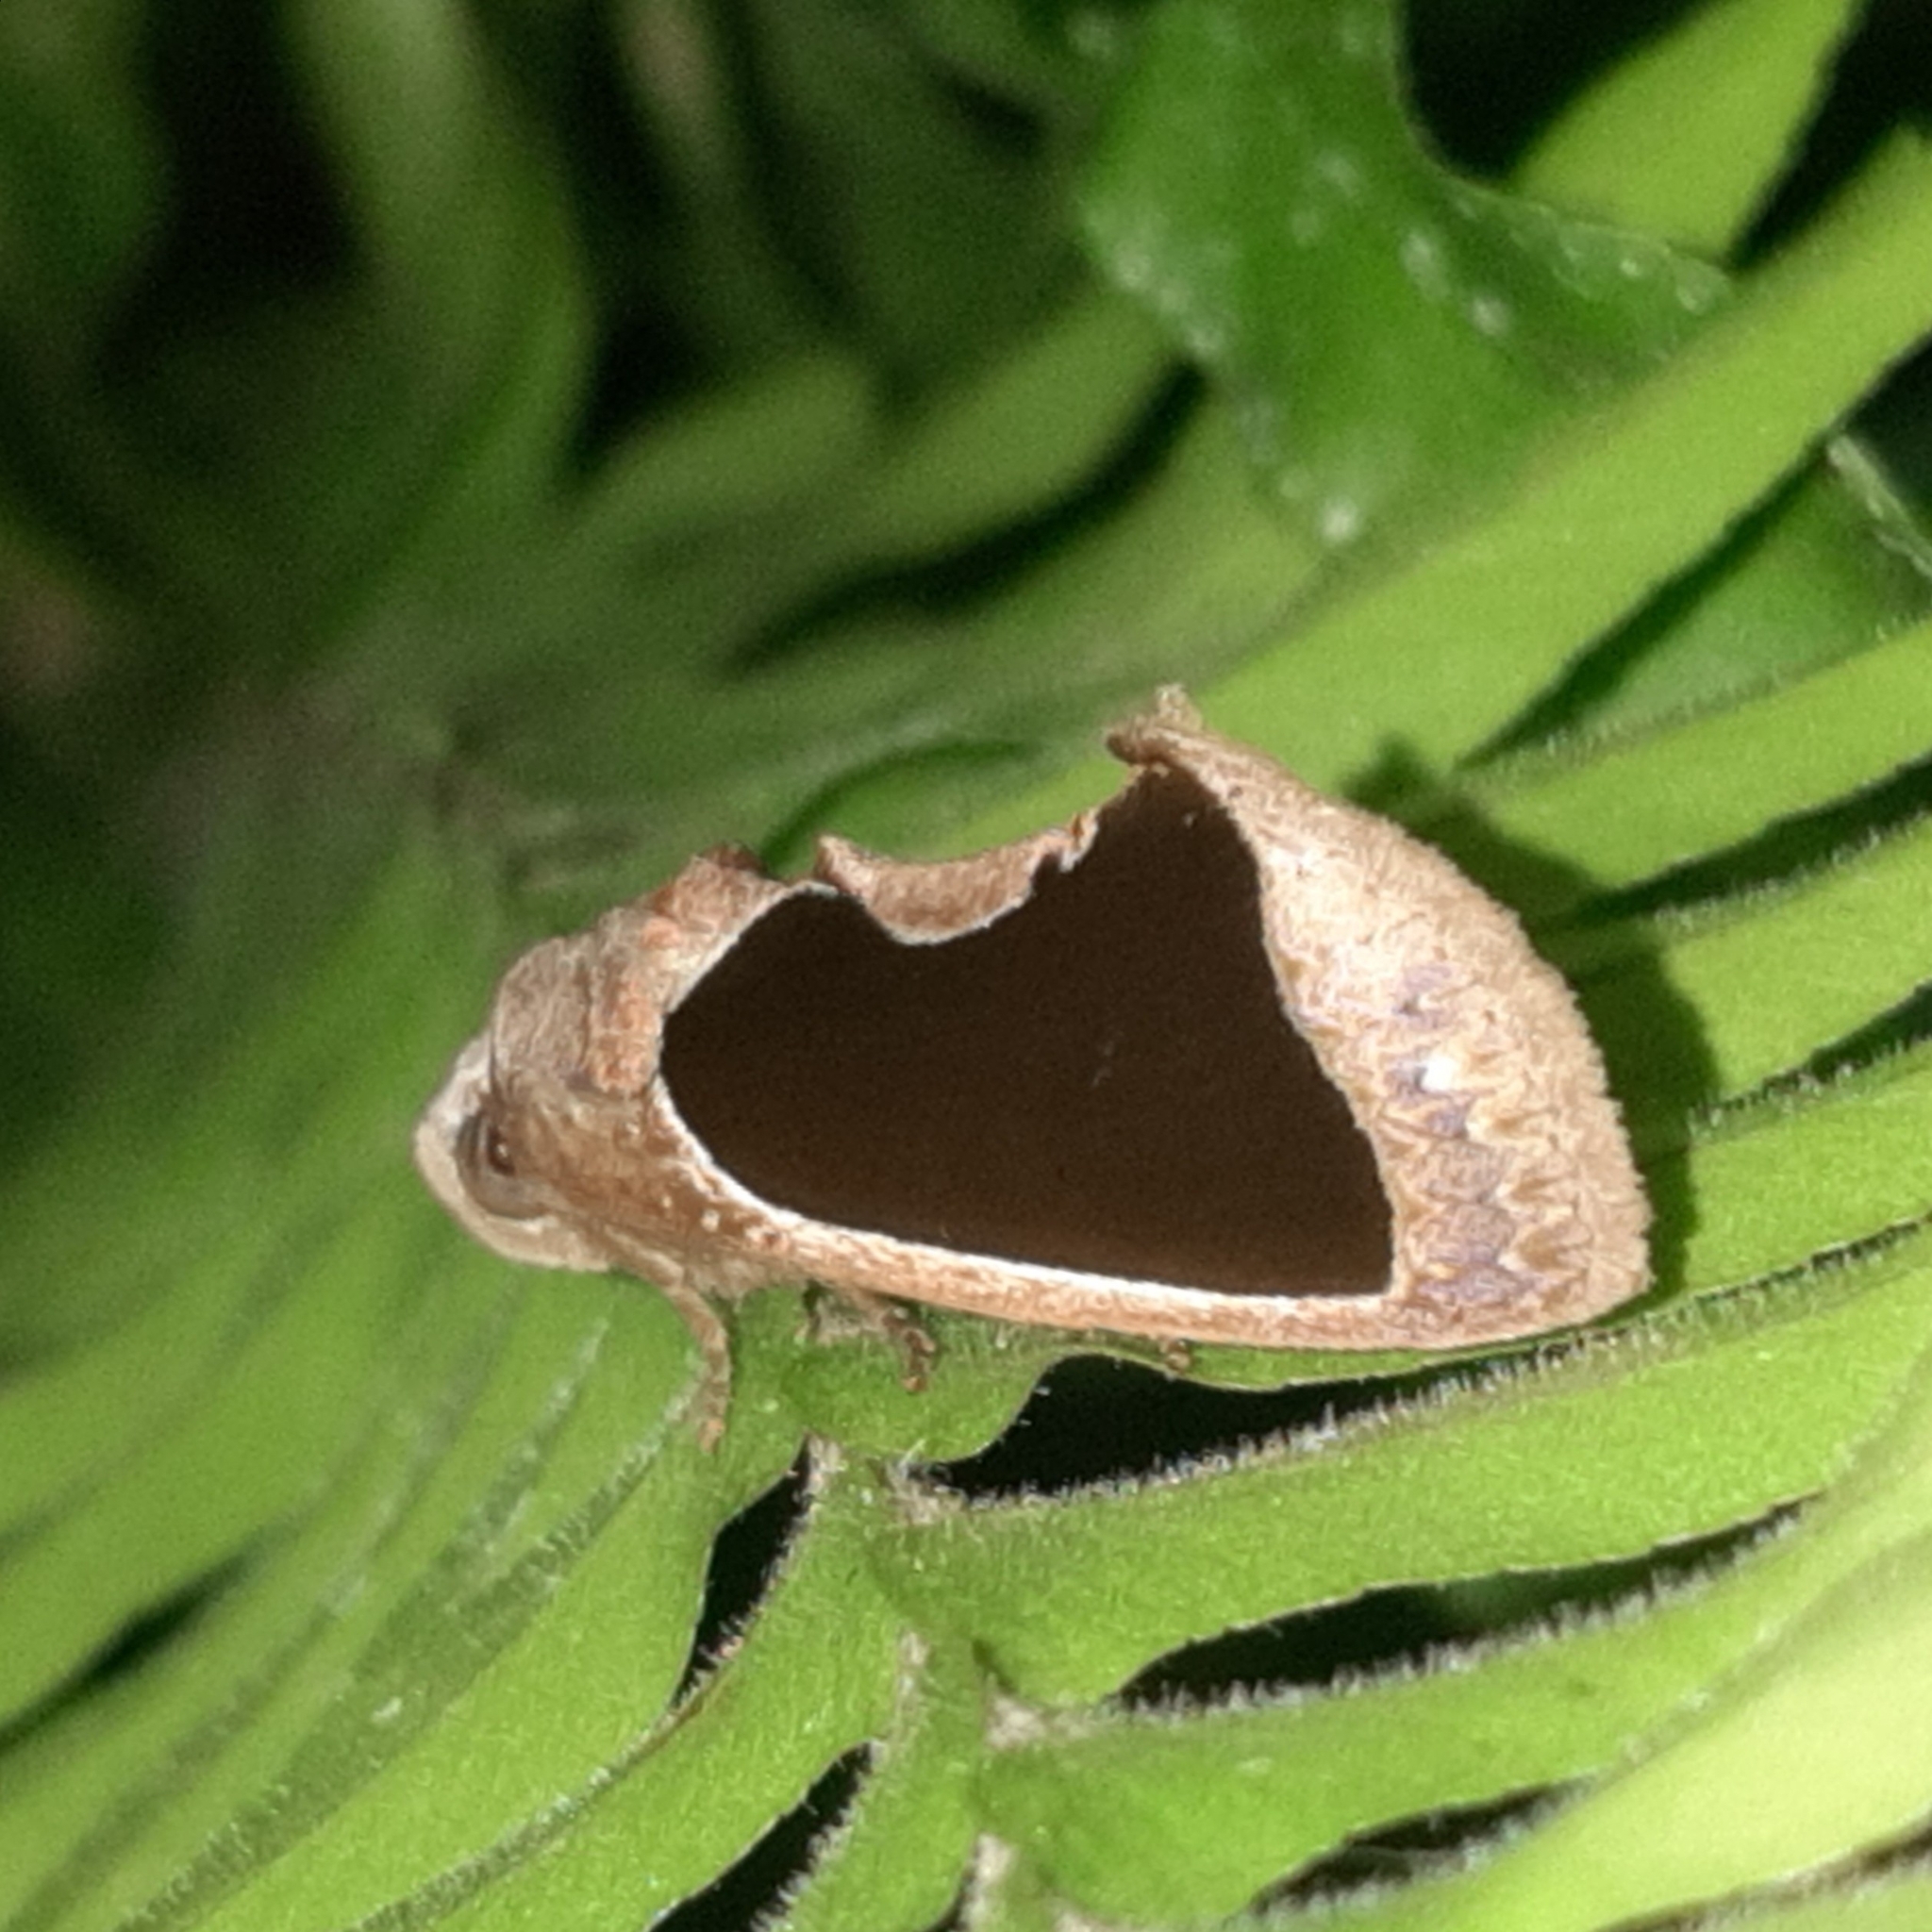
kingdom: Animalia
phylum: Arthropoda
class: Insecta
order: Lepidoptera
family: Erebidae
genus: Gonodonta
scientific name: Gonodonta sinaldus
